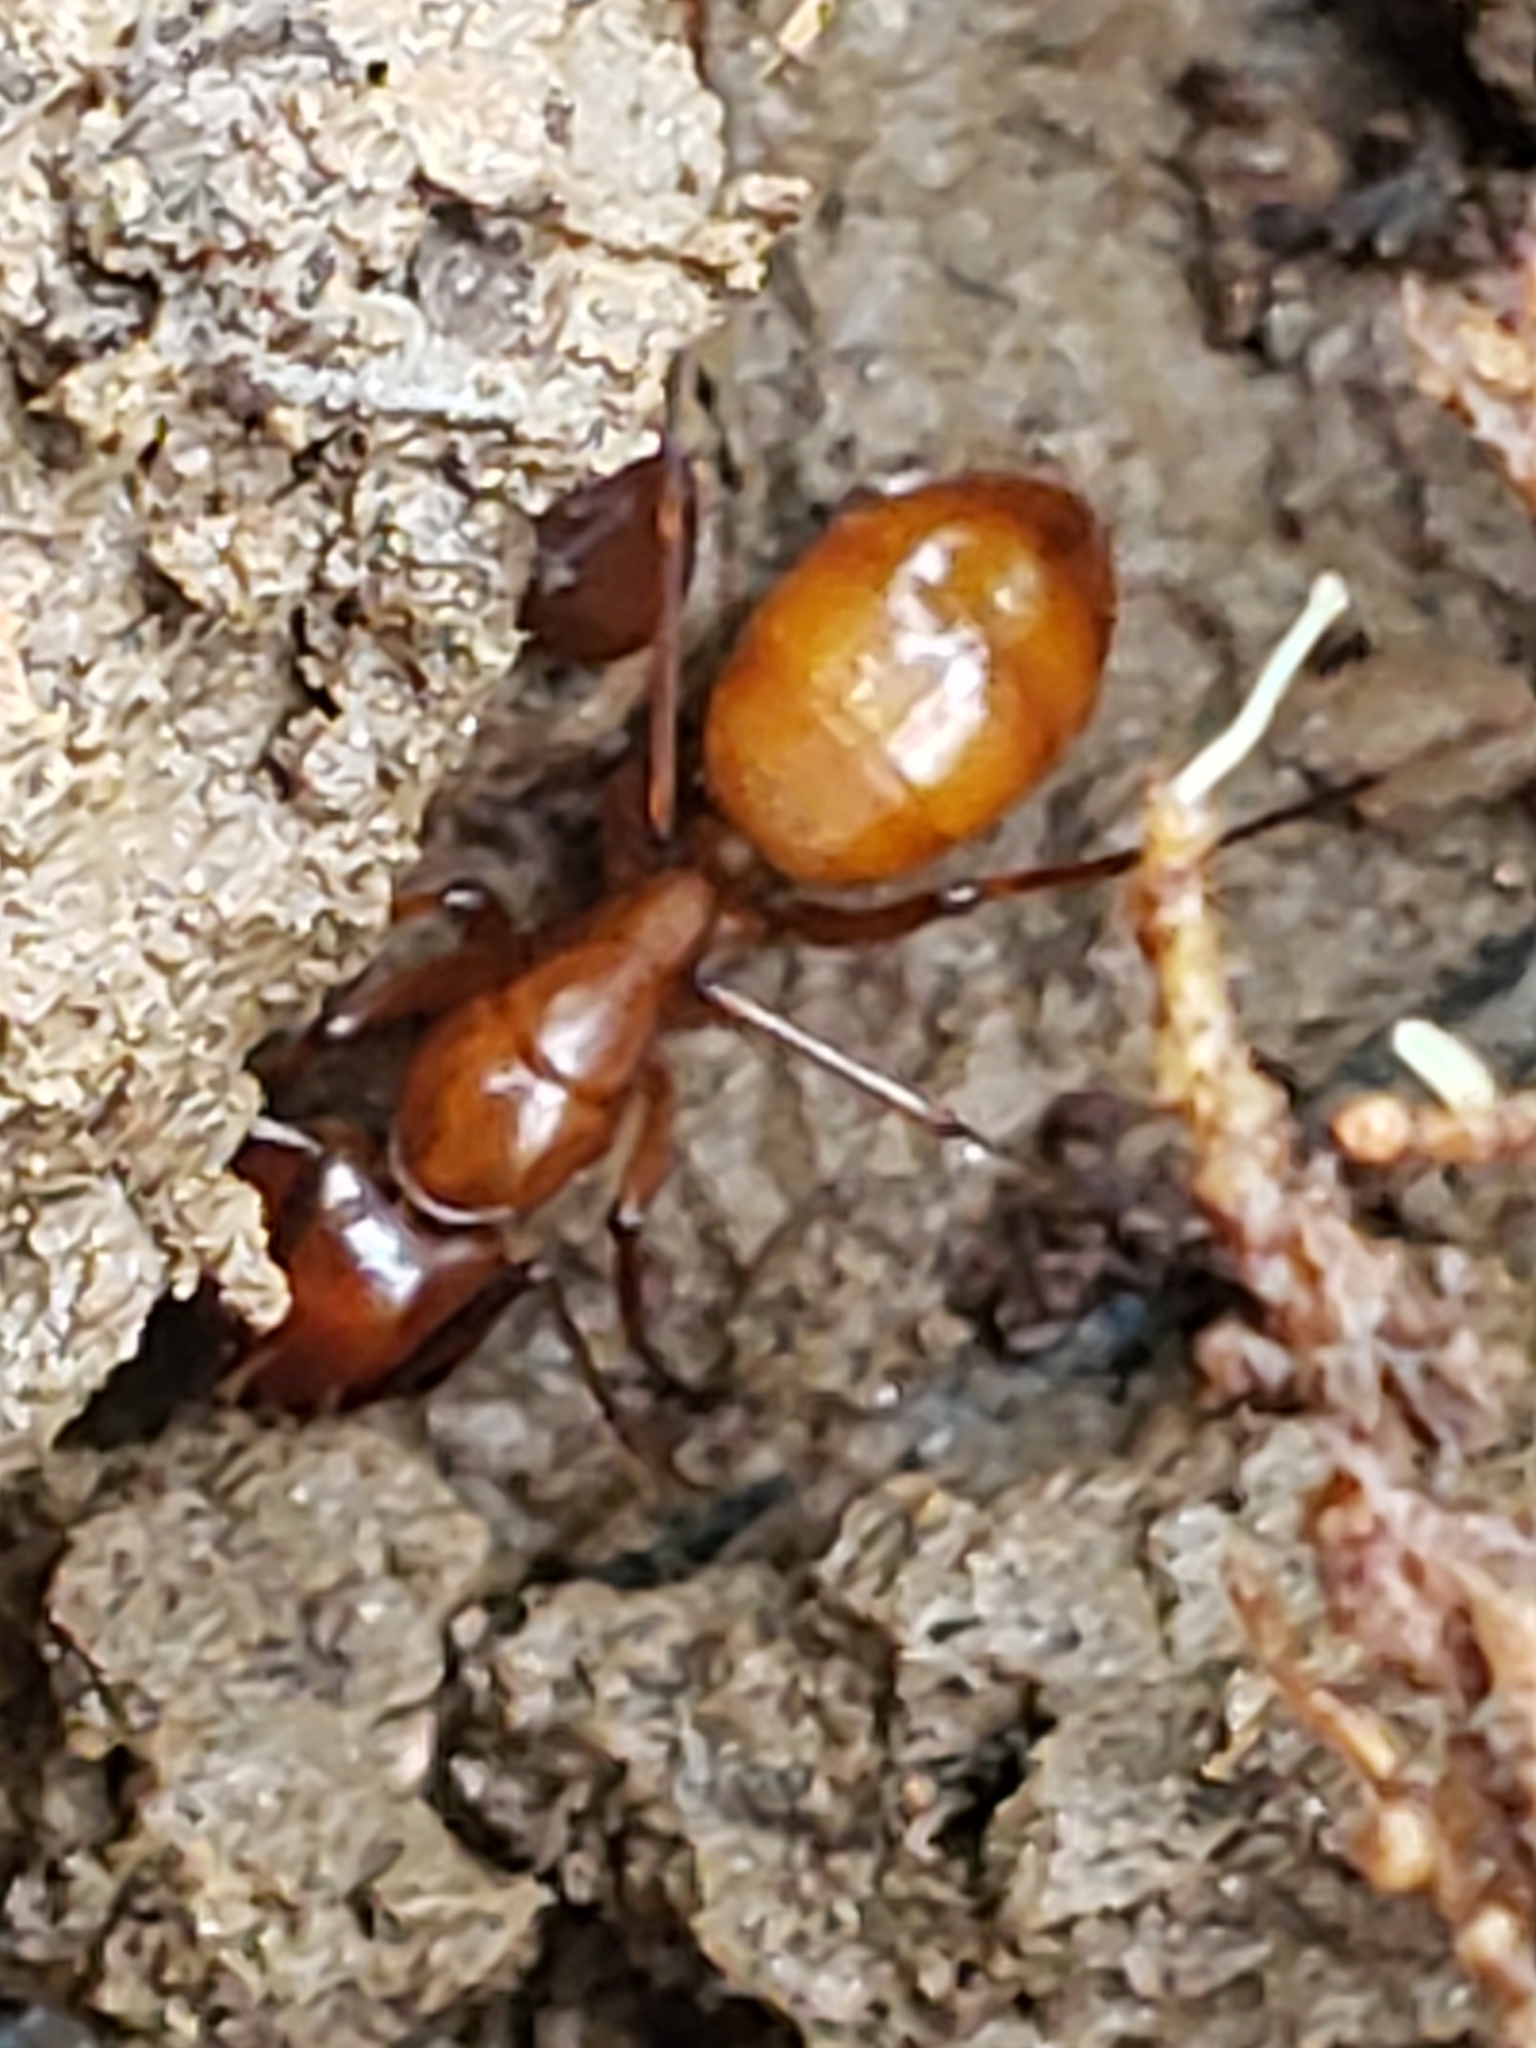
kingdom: Animalia
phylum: Arthropoda
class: Insecta
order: Hymenoptera
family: Formicidae
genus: Camponotus
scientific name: Camponotus castaneus
